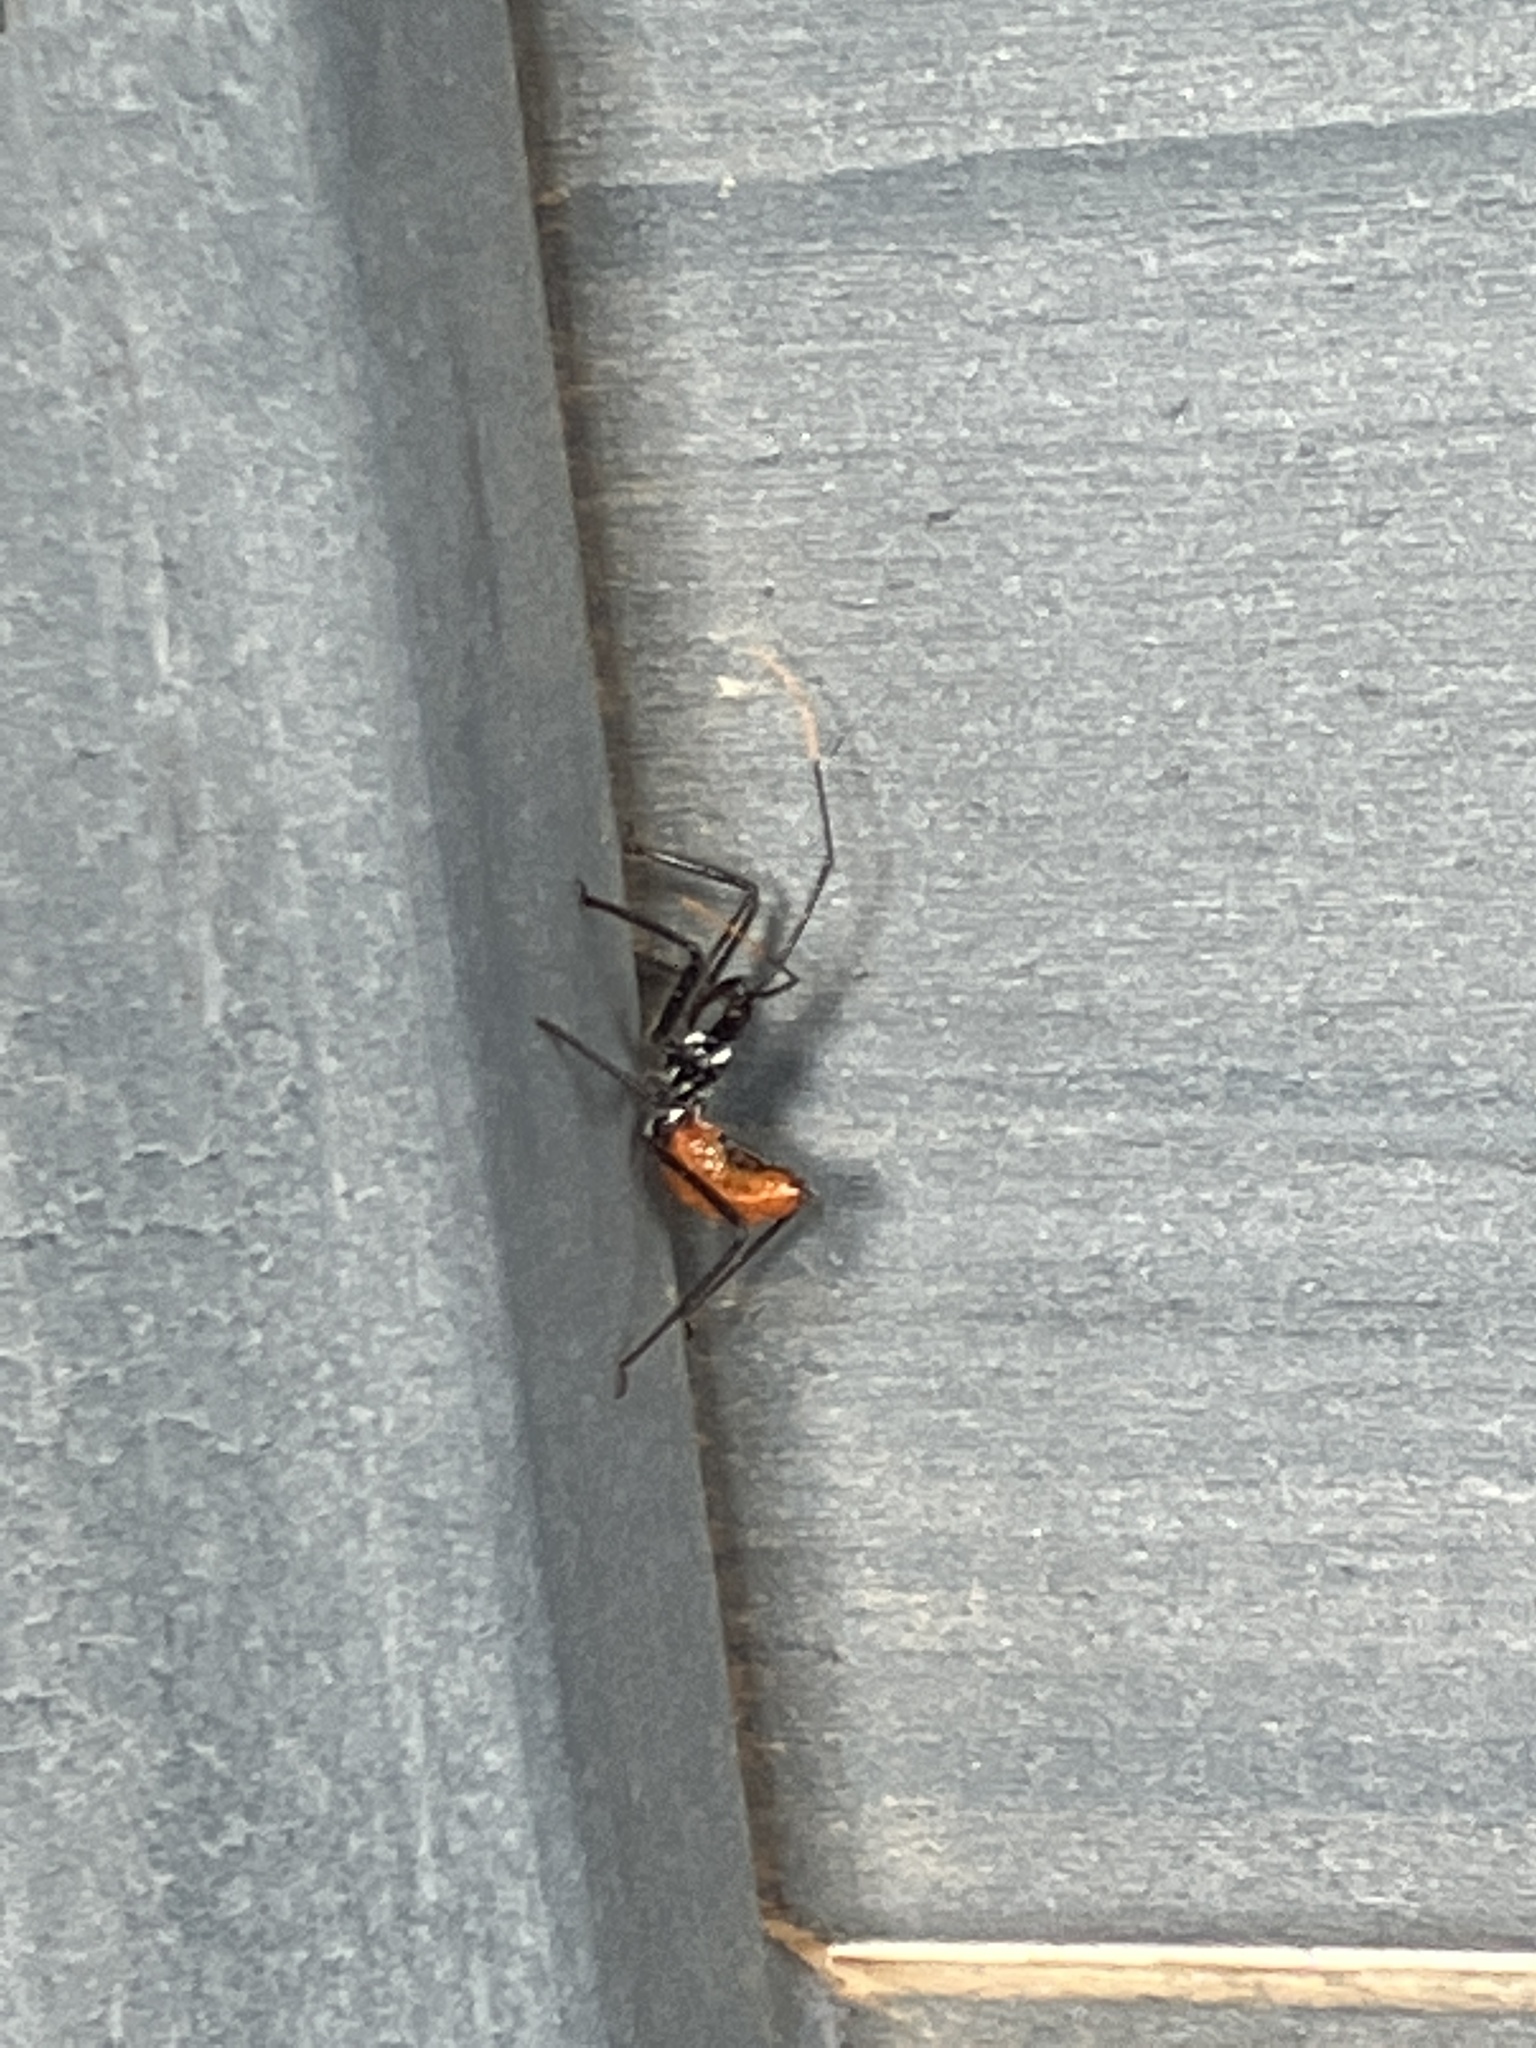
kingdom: Animalia
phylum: Arthropoda
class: Insecta
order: Hemiptera
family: Reduviidae
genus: Arilus
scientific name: Arilus cristatus
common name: North american wheel bug
